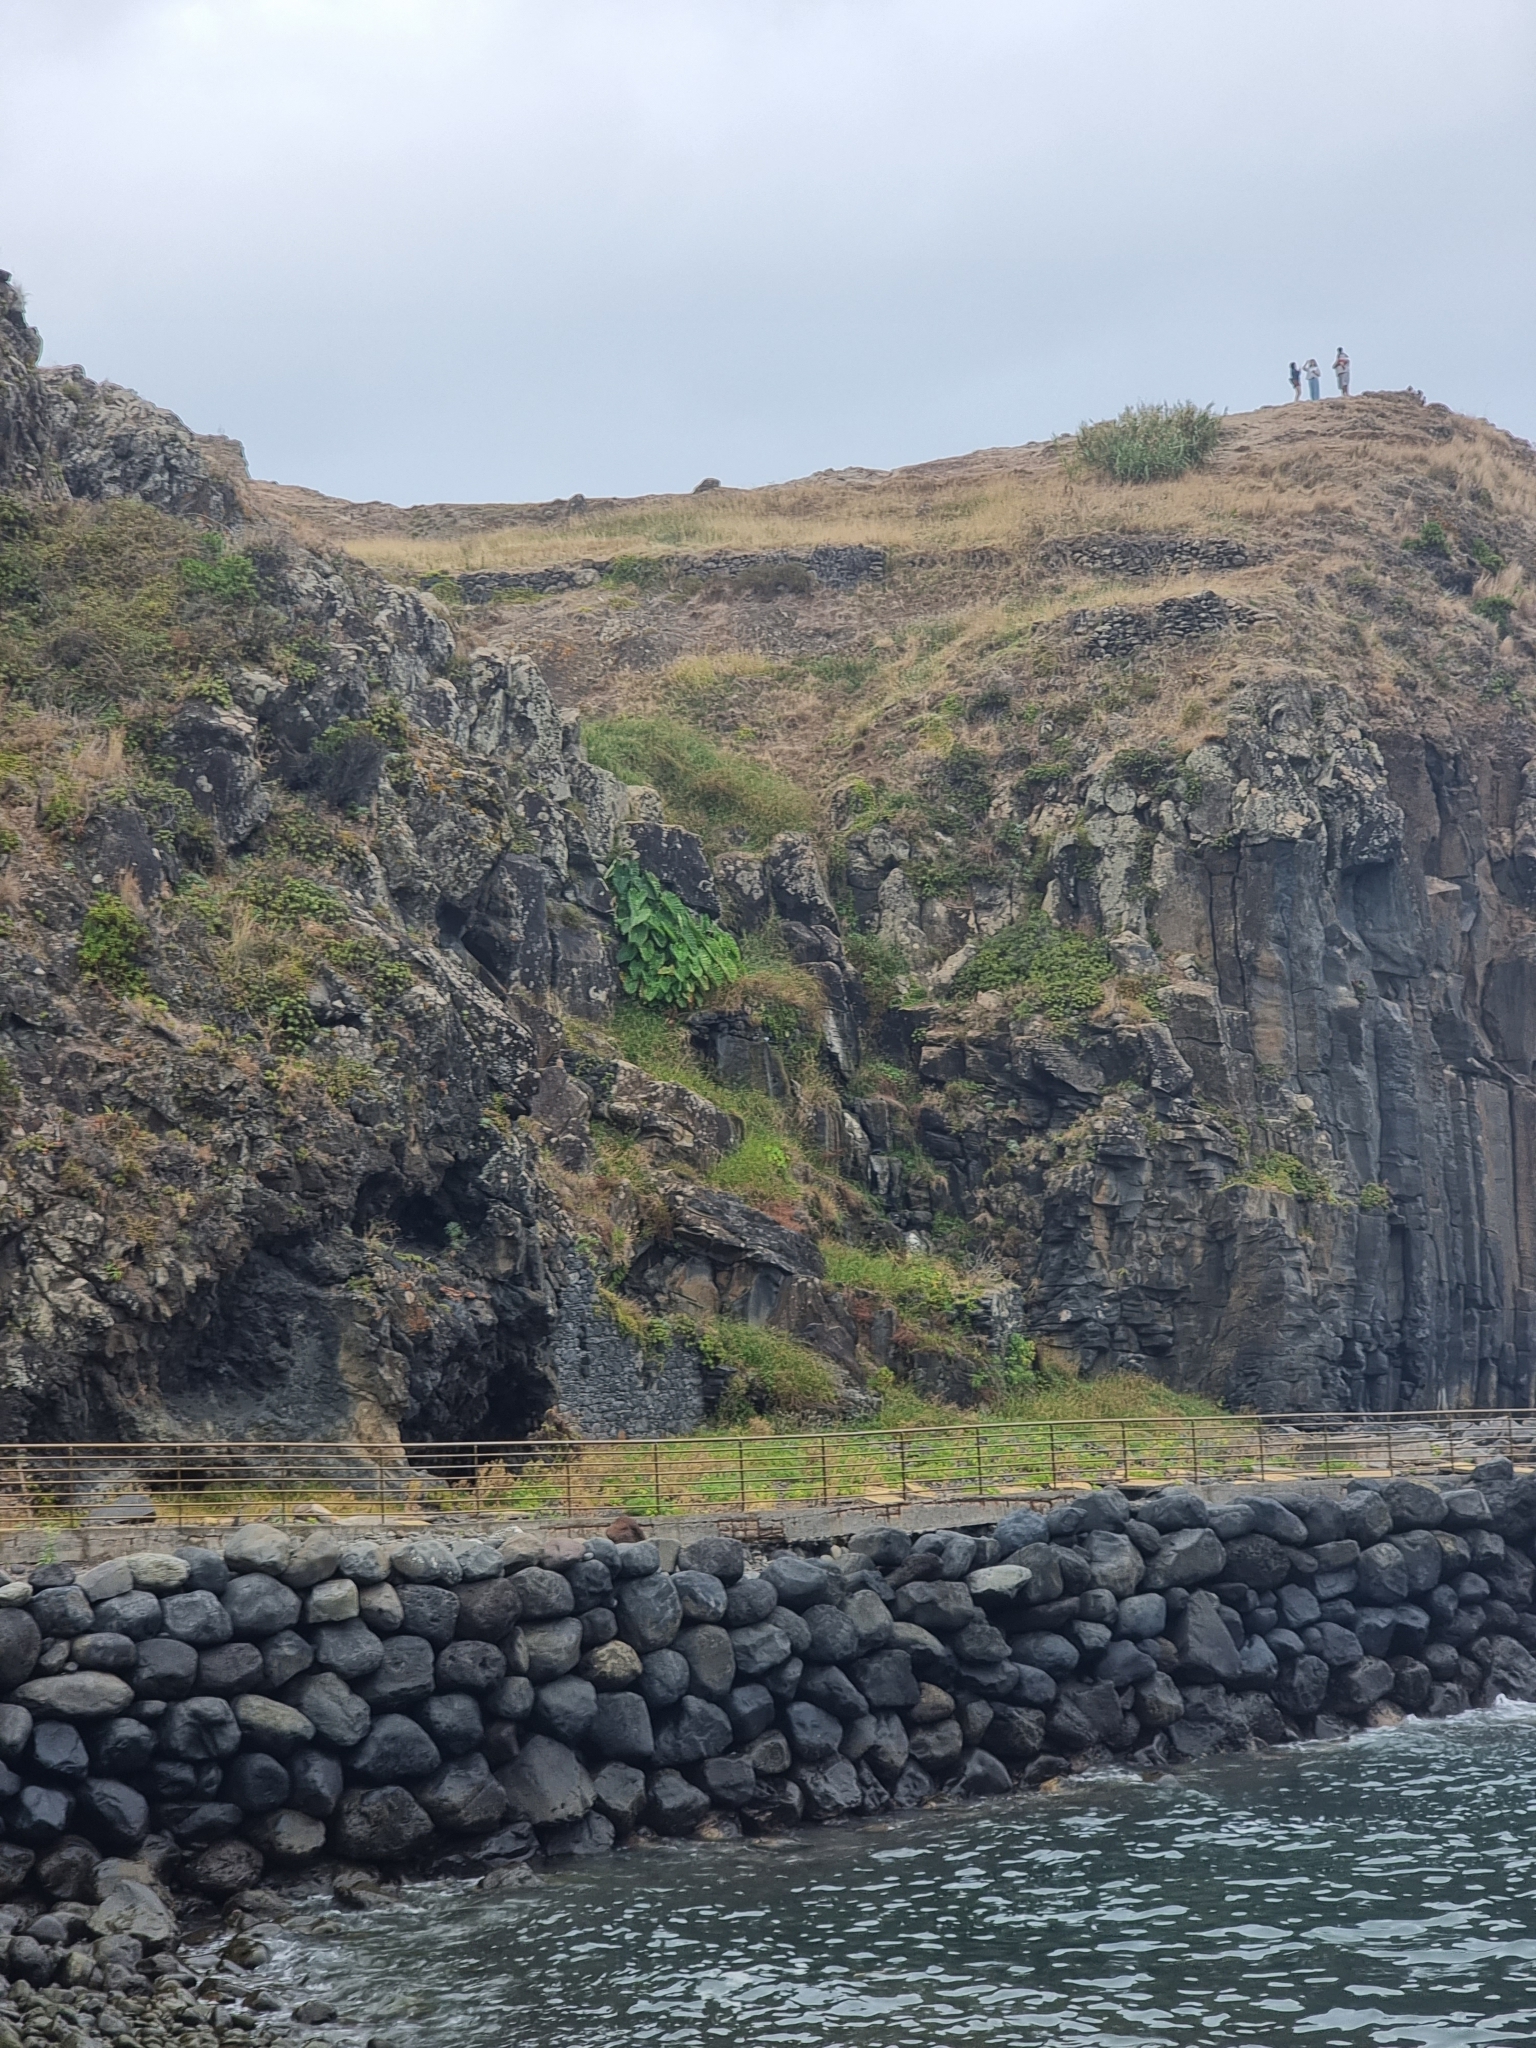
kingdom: Plantae
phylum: Tracheophyta
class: Liliopsida
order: Alismatales
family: Araceae
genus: Colocasia
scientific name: Colocasia esculenta
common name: Taro
